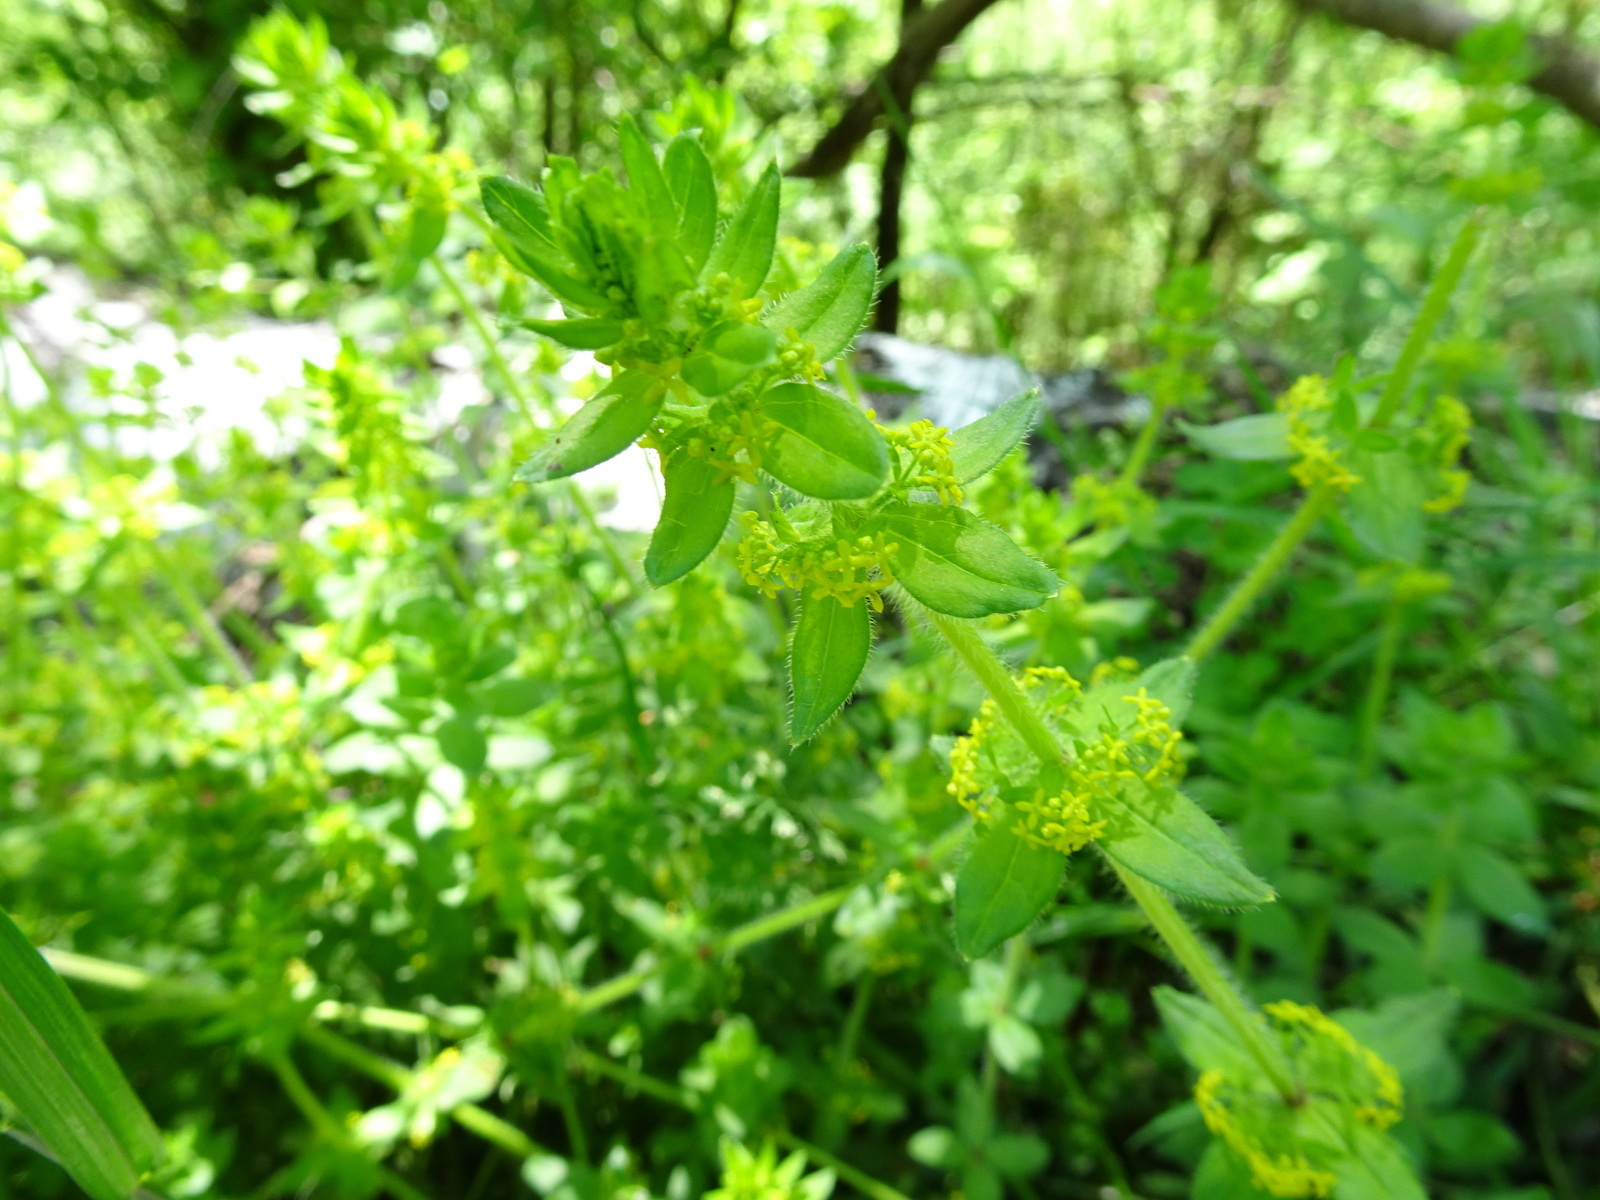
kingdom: Plantae
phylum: Tracheophyta
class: Magnoliopsida
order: Gentianales
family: Rubiaceae
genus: Cruciata
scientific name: Cruciata laevipes
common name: Crosswort
